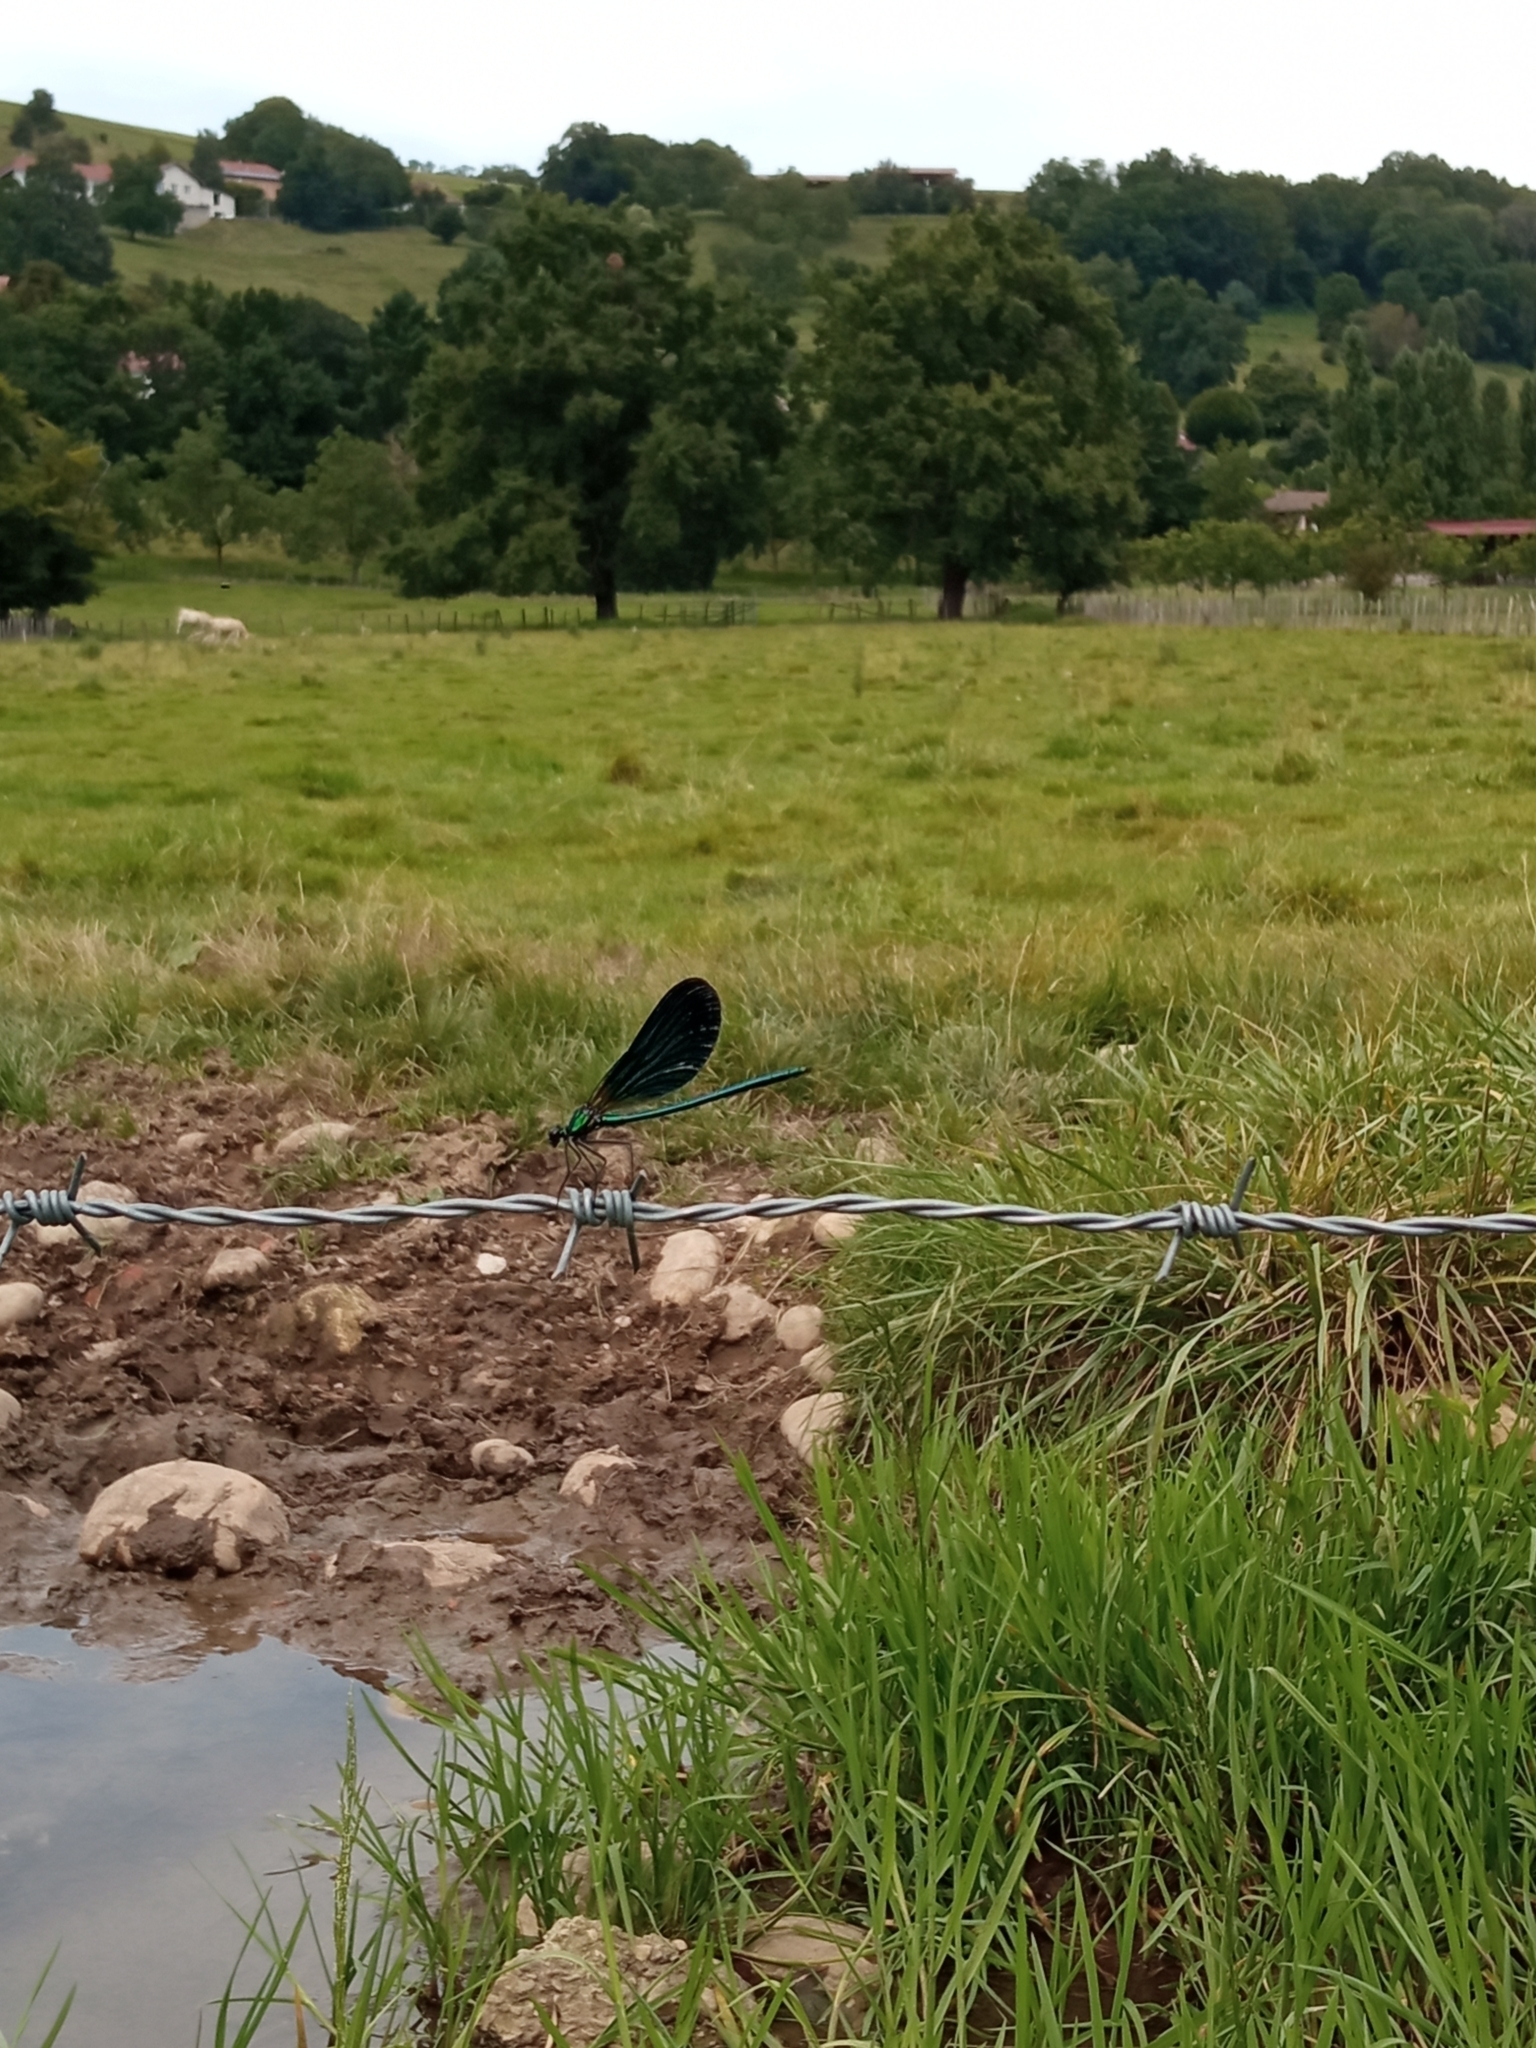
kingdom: Animalia
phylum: Arthropoda
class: Insecta
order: Odonata
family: Calopterygidae
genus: Calopteryx
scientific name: Calopteryx virgo
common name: Beautiful demoiselle
